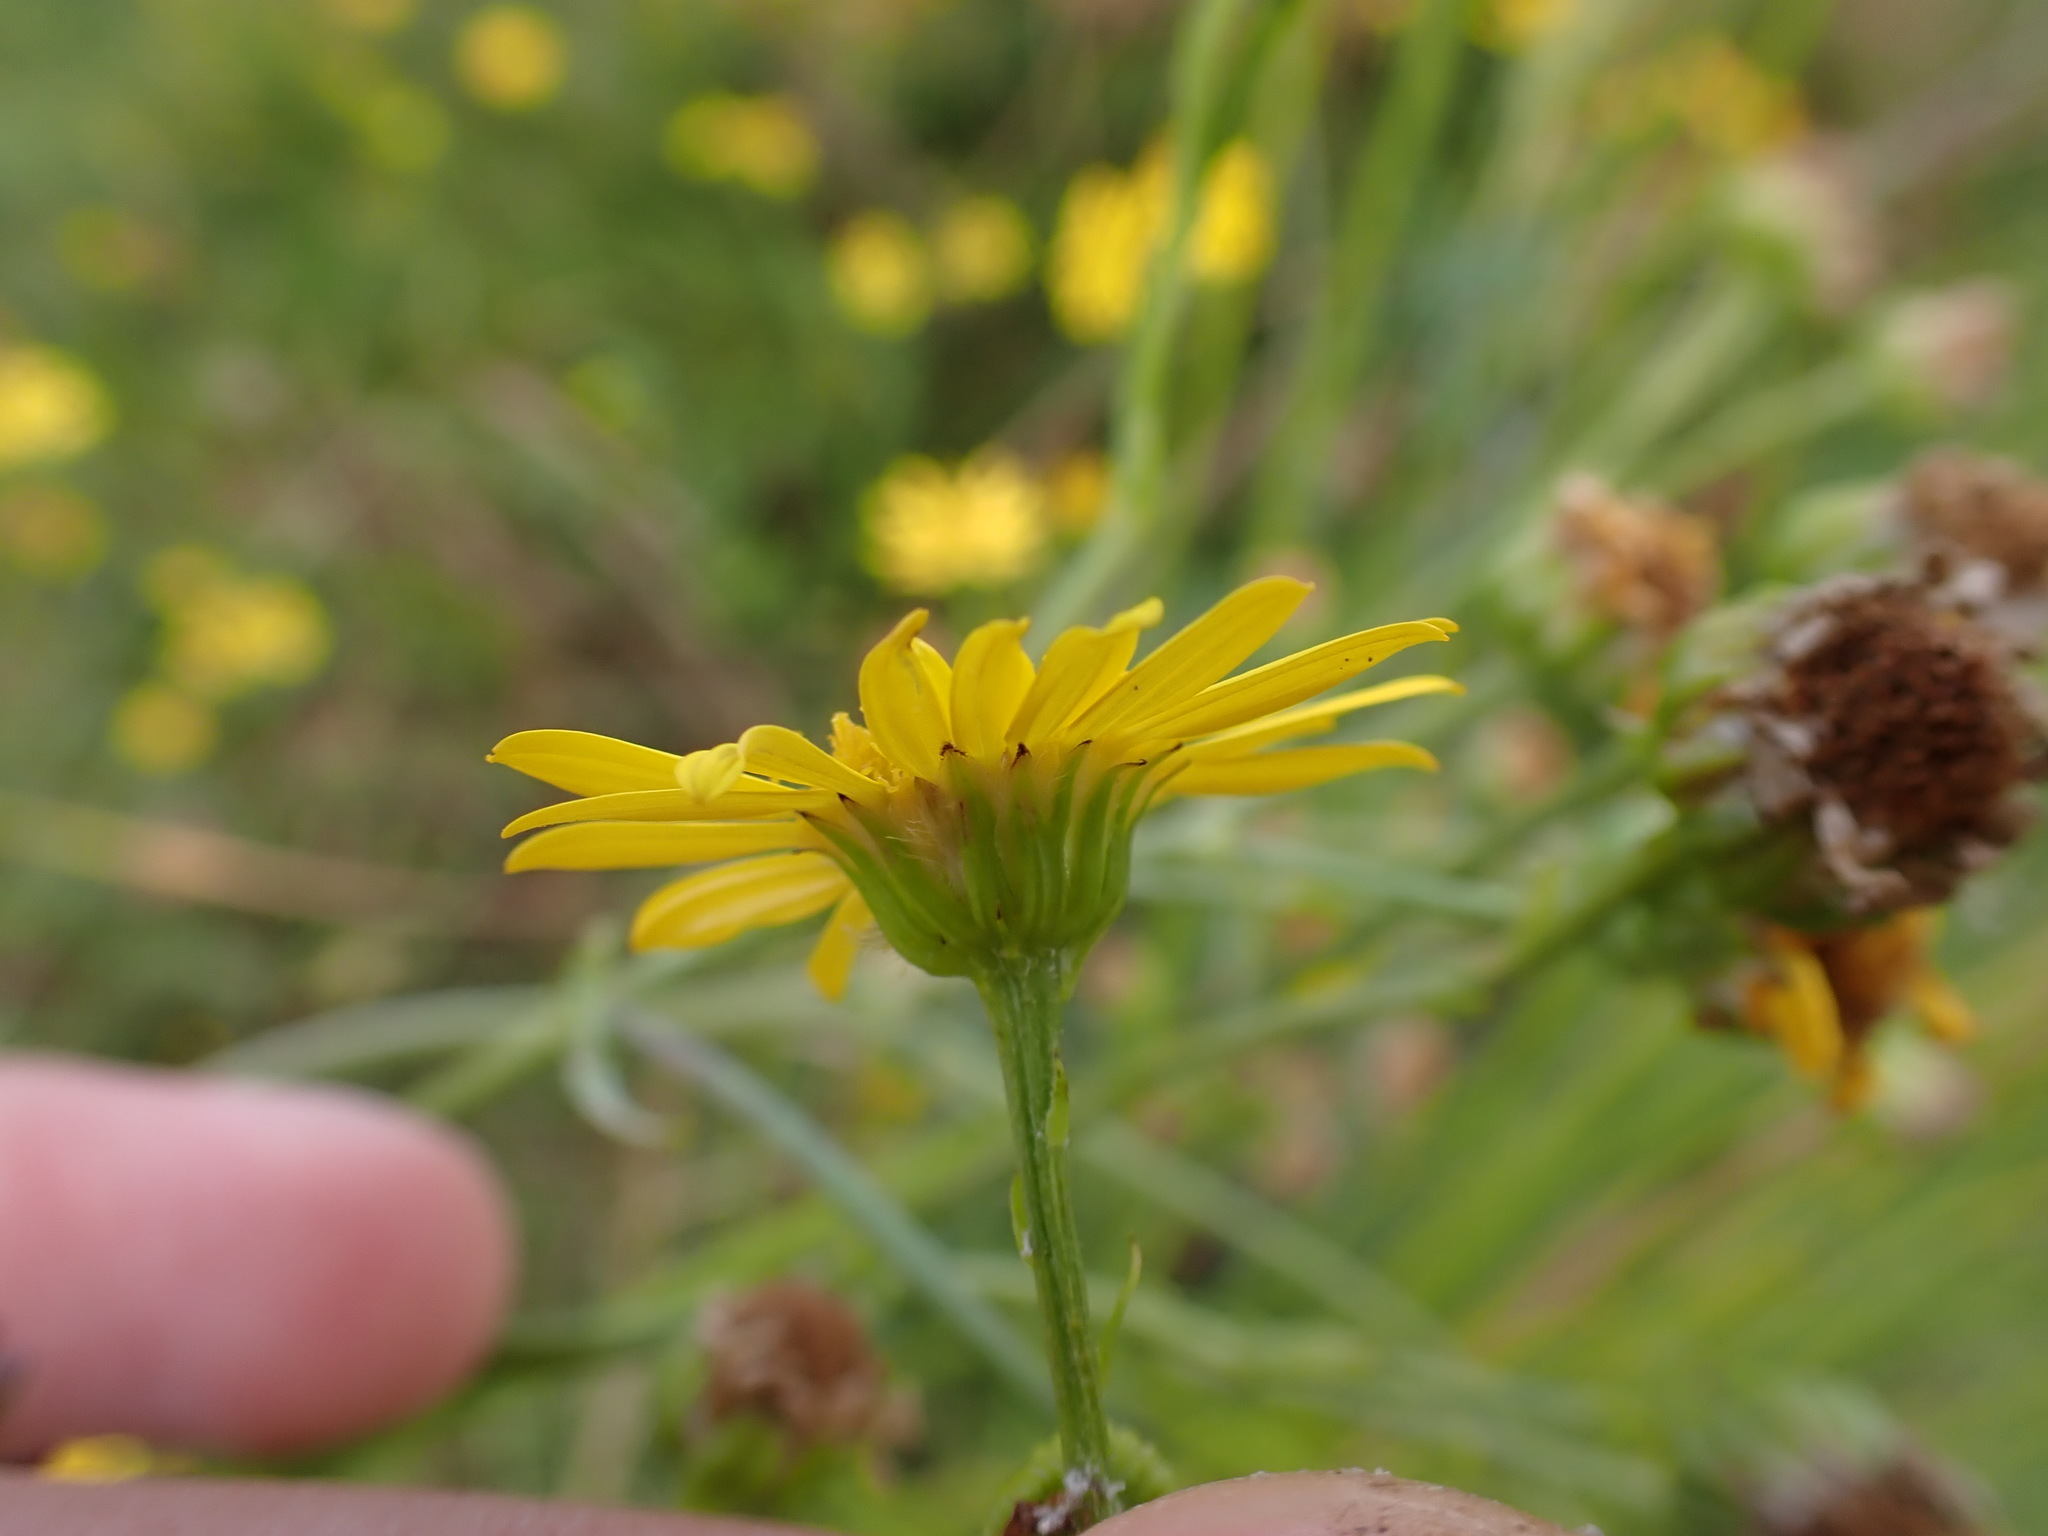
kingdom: Plantae
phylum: Tracheophyta
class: Magnoliopsida
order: Asterales
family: Asteraceae
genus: Jacobaea
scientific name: Jacobaea vulgaris
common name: Stinking willie
